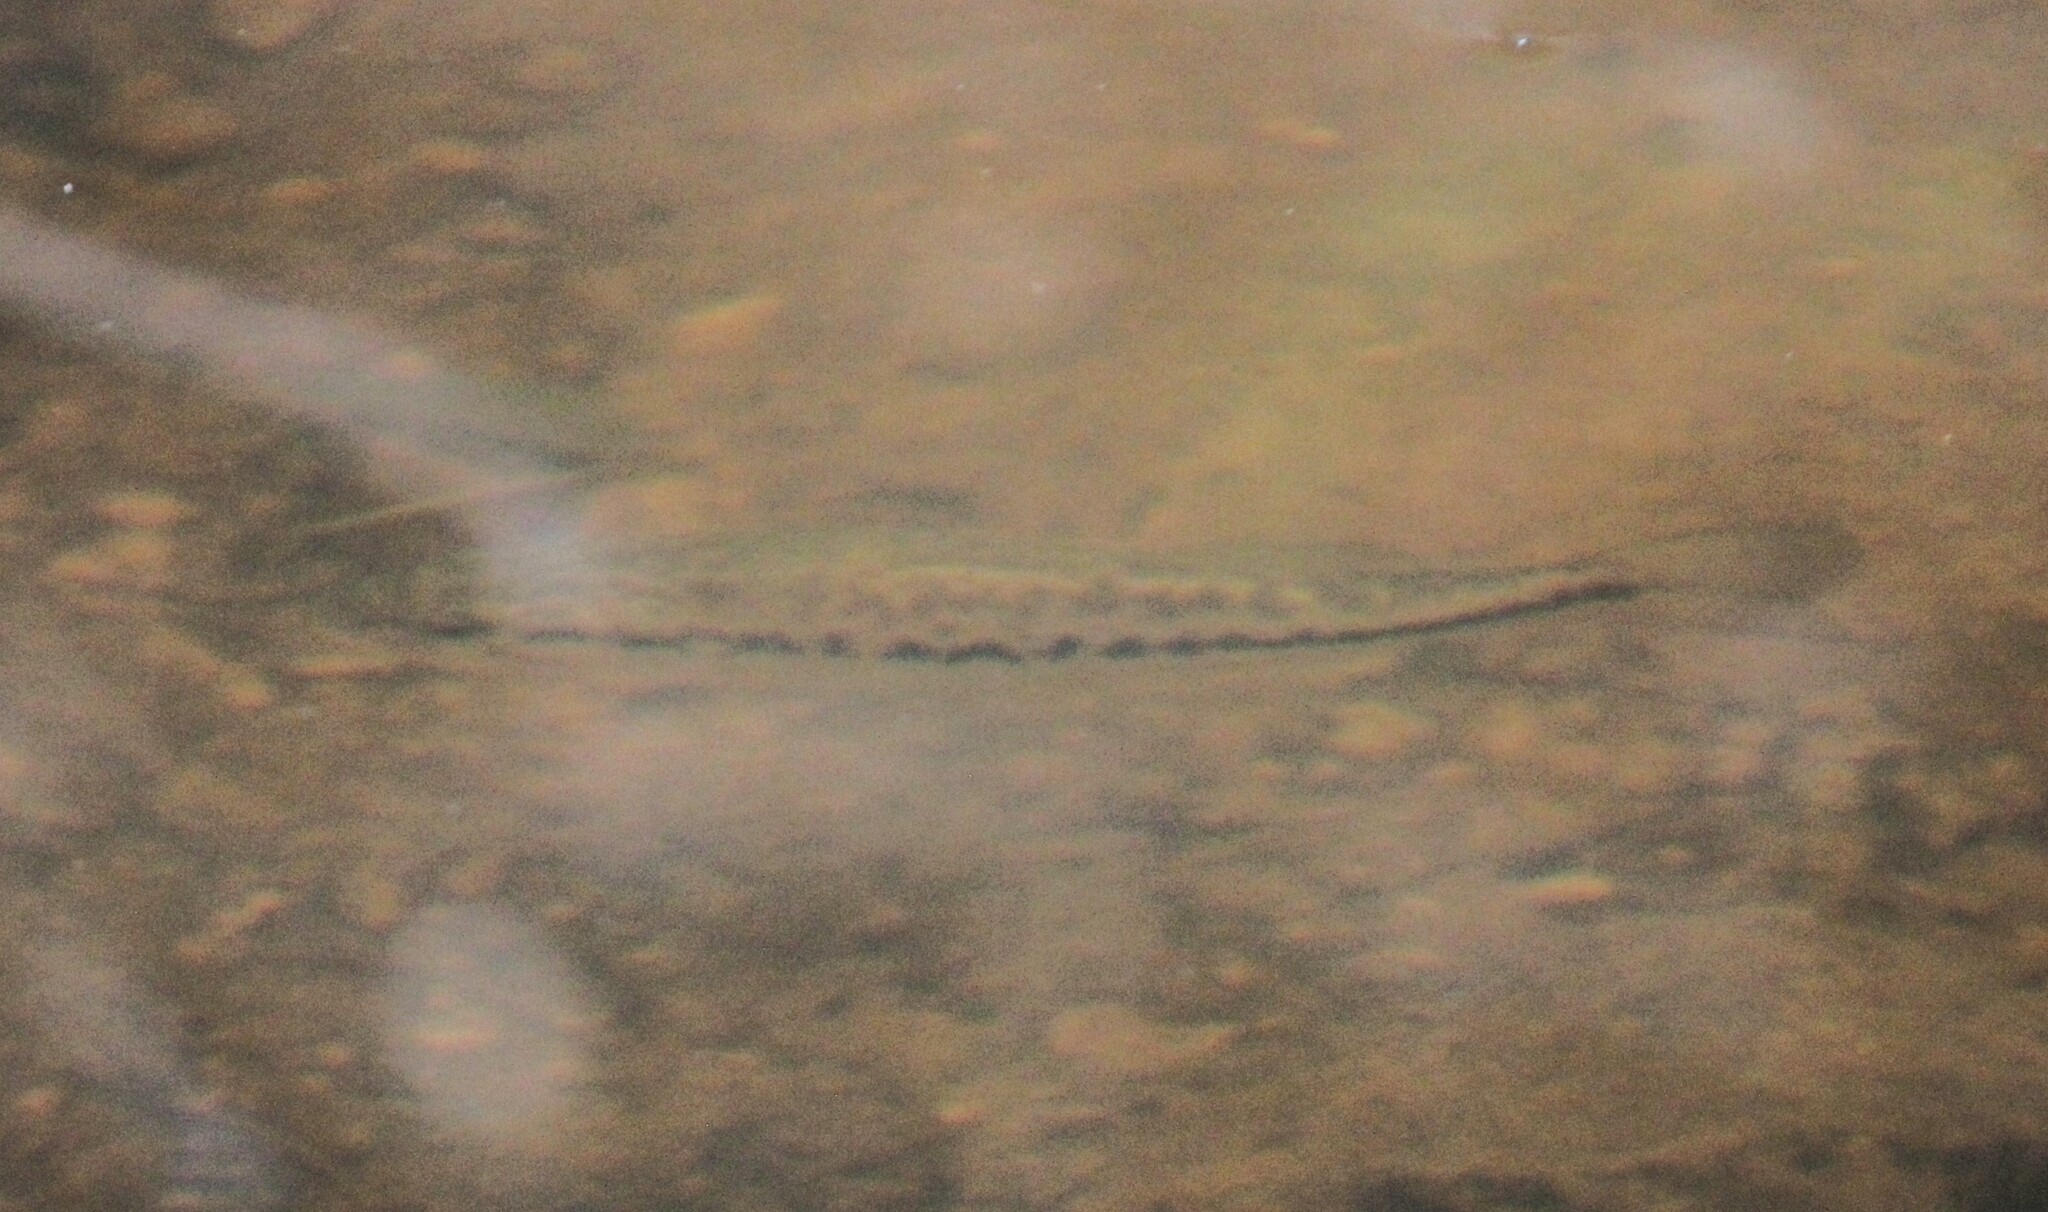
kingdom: Animalia
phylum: Chordata
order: Perciformes
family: Centrarchidae
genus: Micropterus
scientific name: Micropterus salmoides
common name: Largemouth bass
